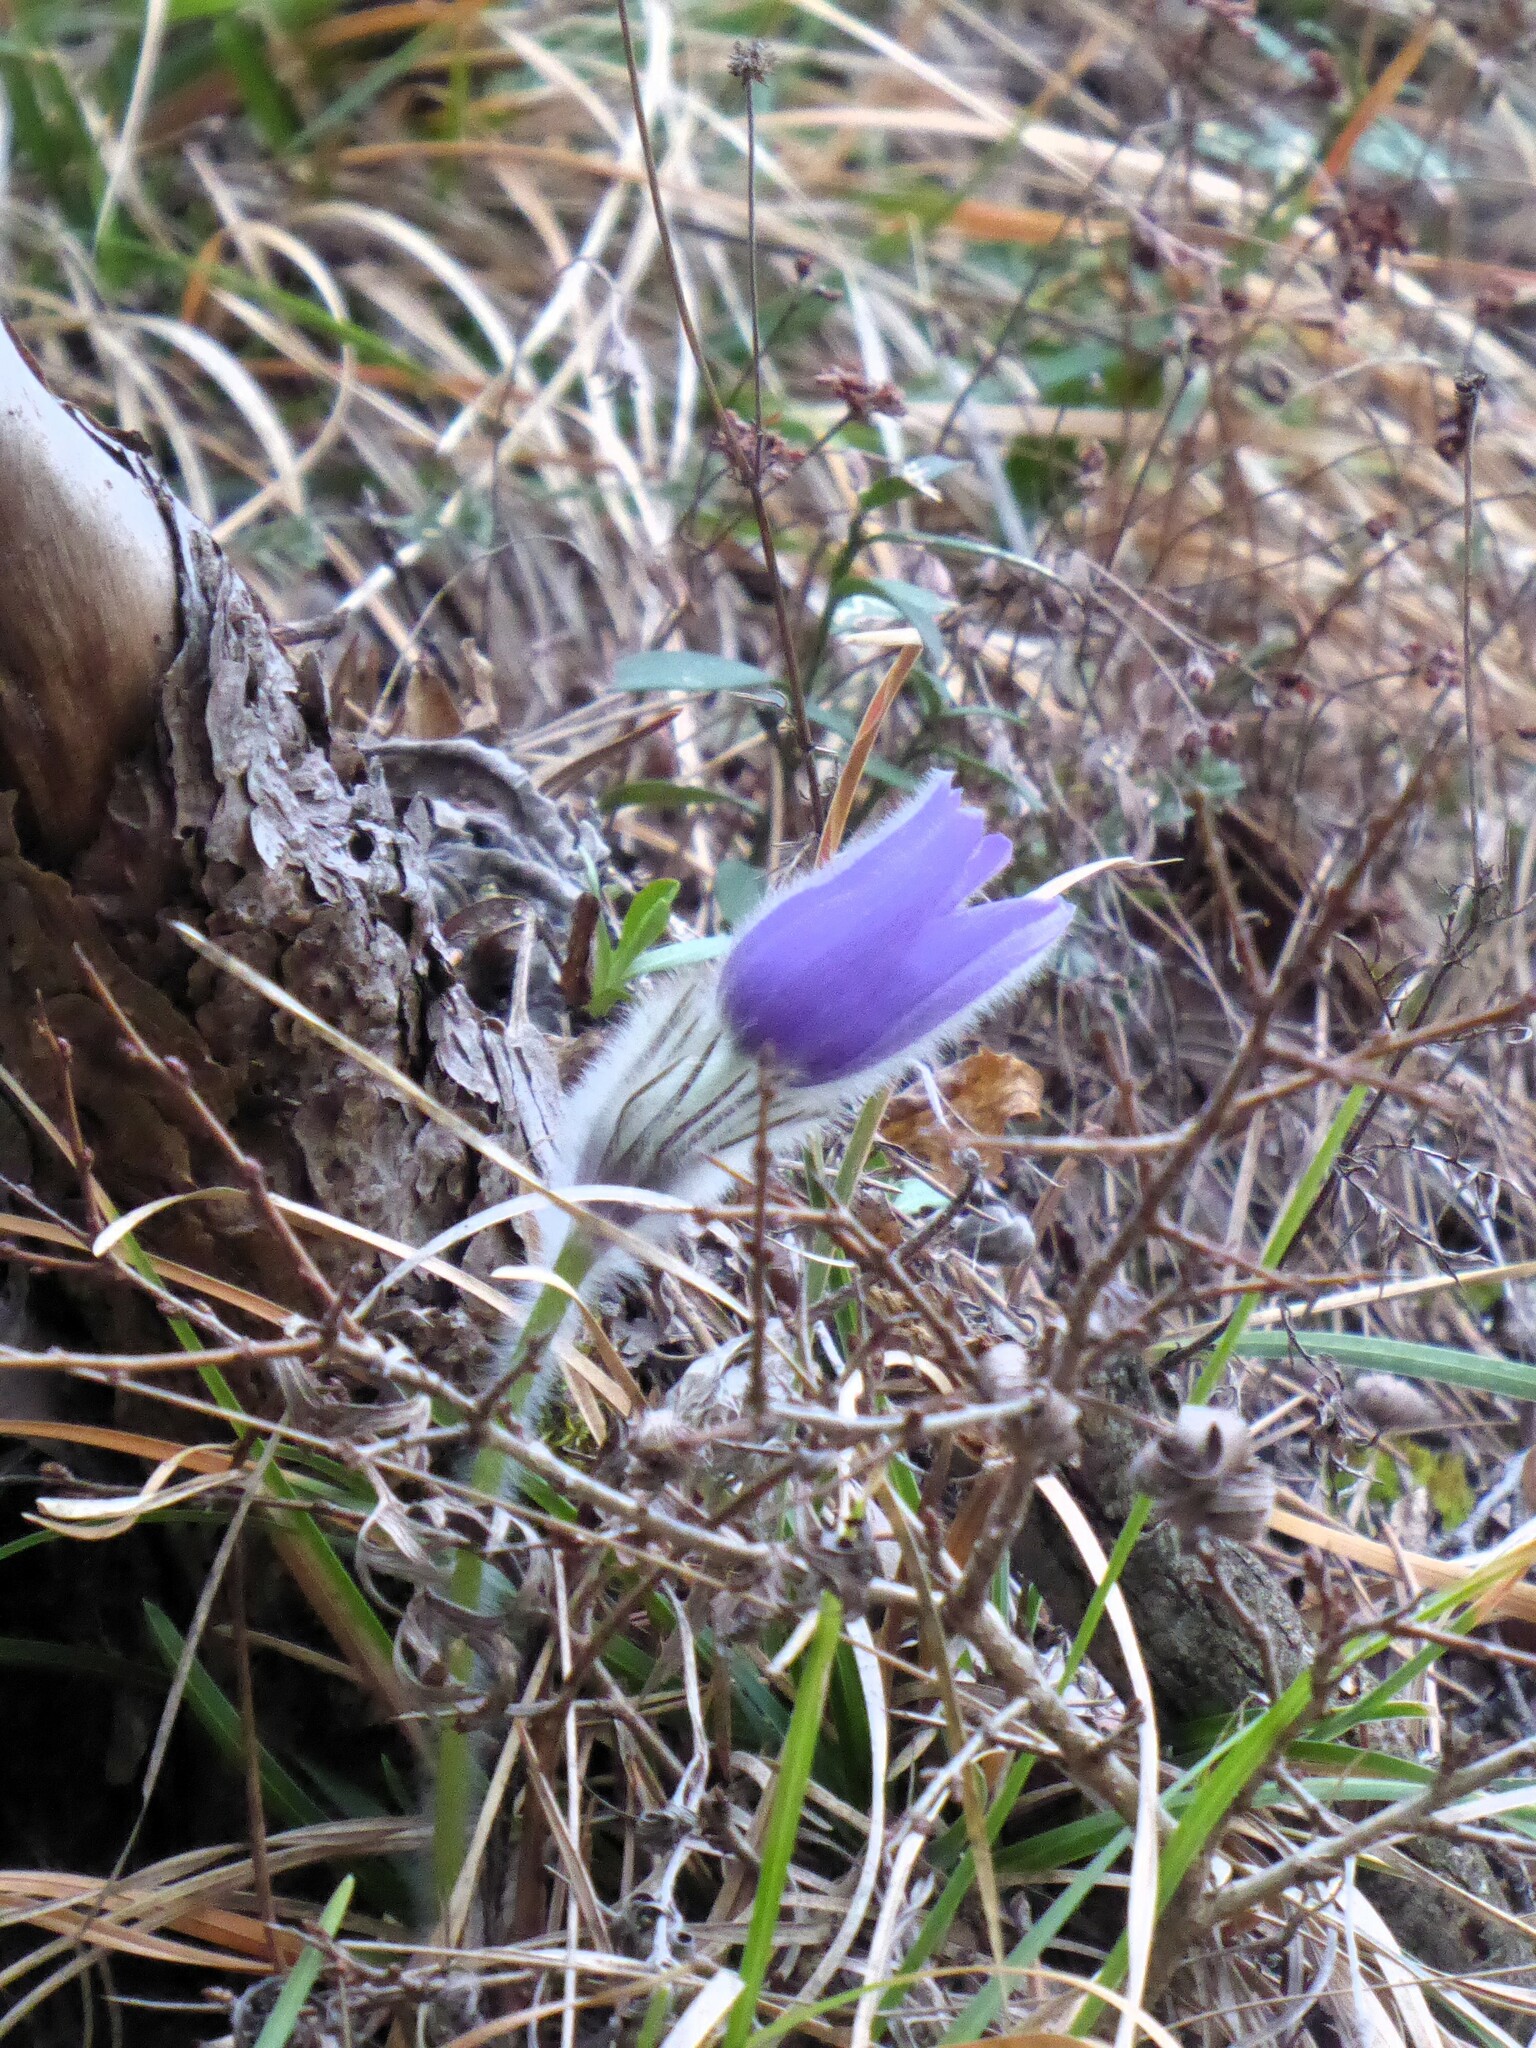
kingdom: Plantae
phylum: Tracheophyta
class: Magnoliopsida
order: Ranunculales
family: Ranunculaceae
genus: Pulsatilla
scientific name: Pulsatilla grandis
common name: Greater pasque flower
